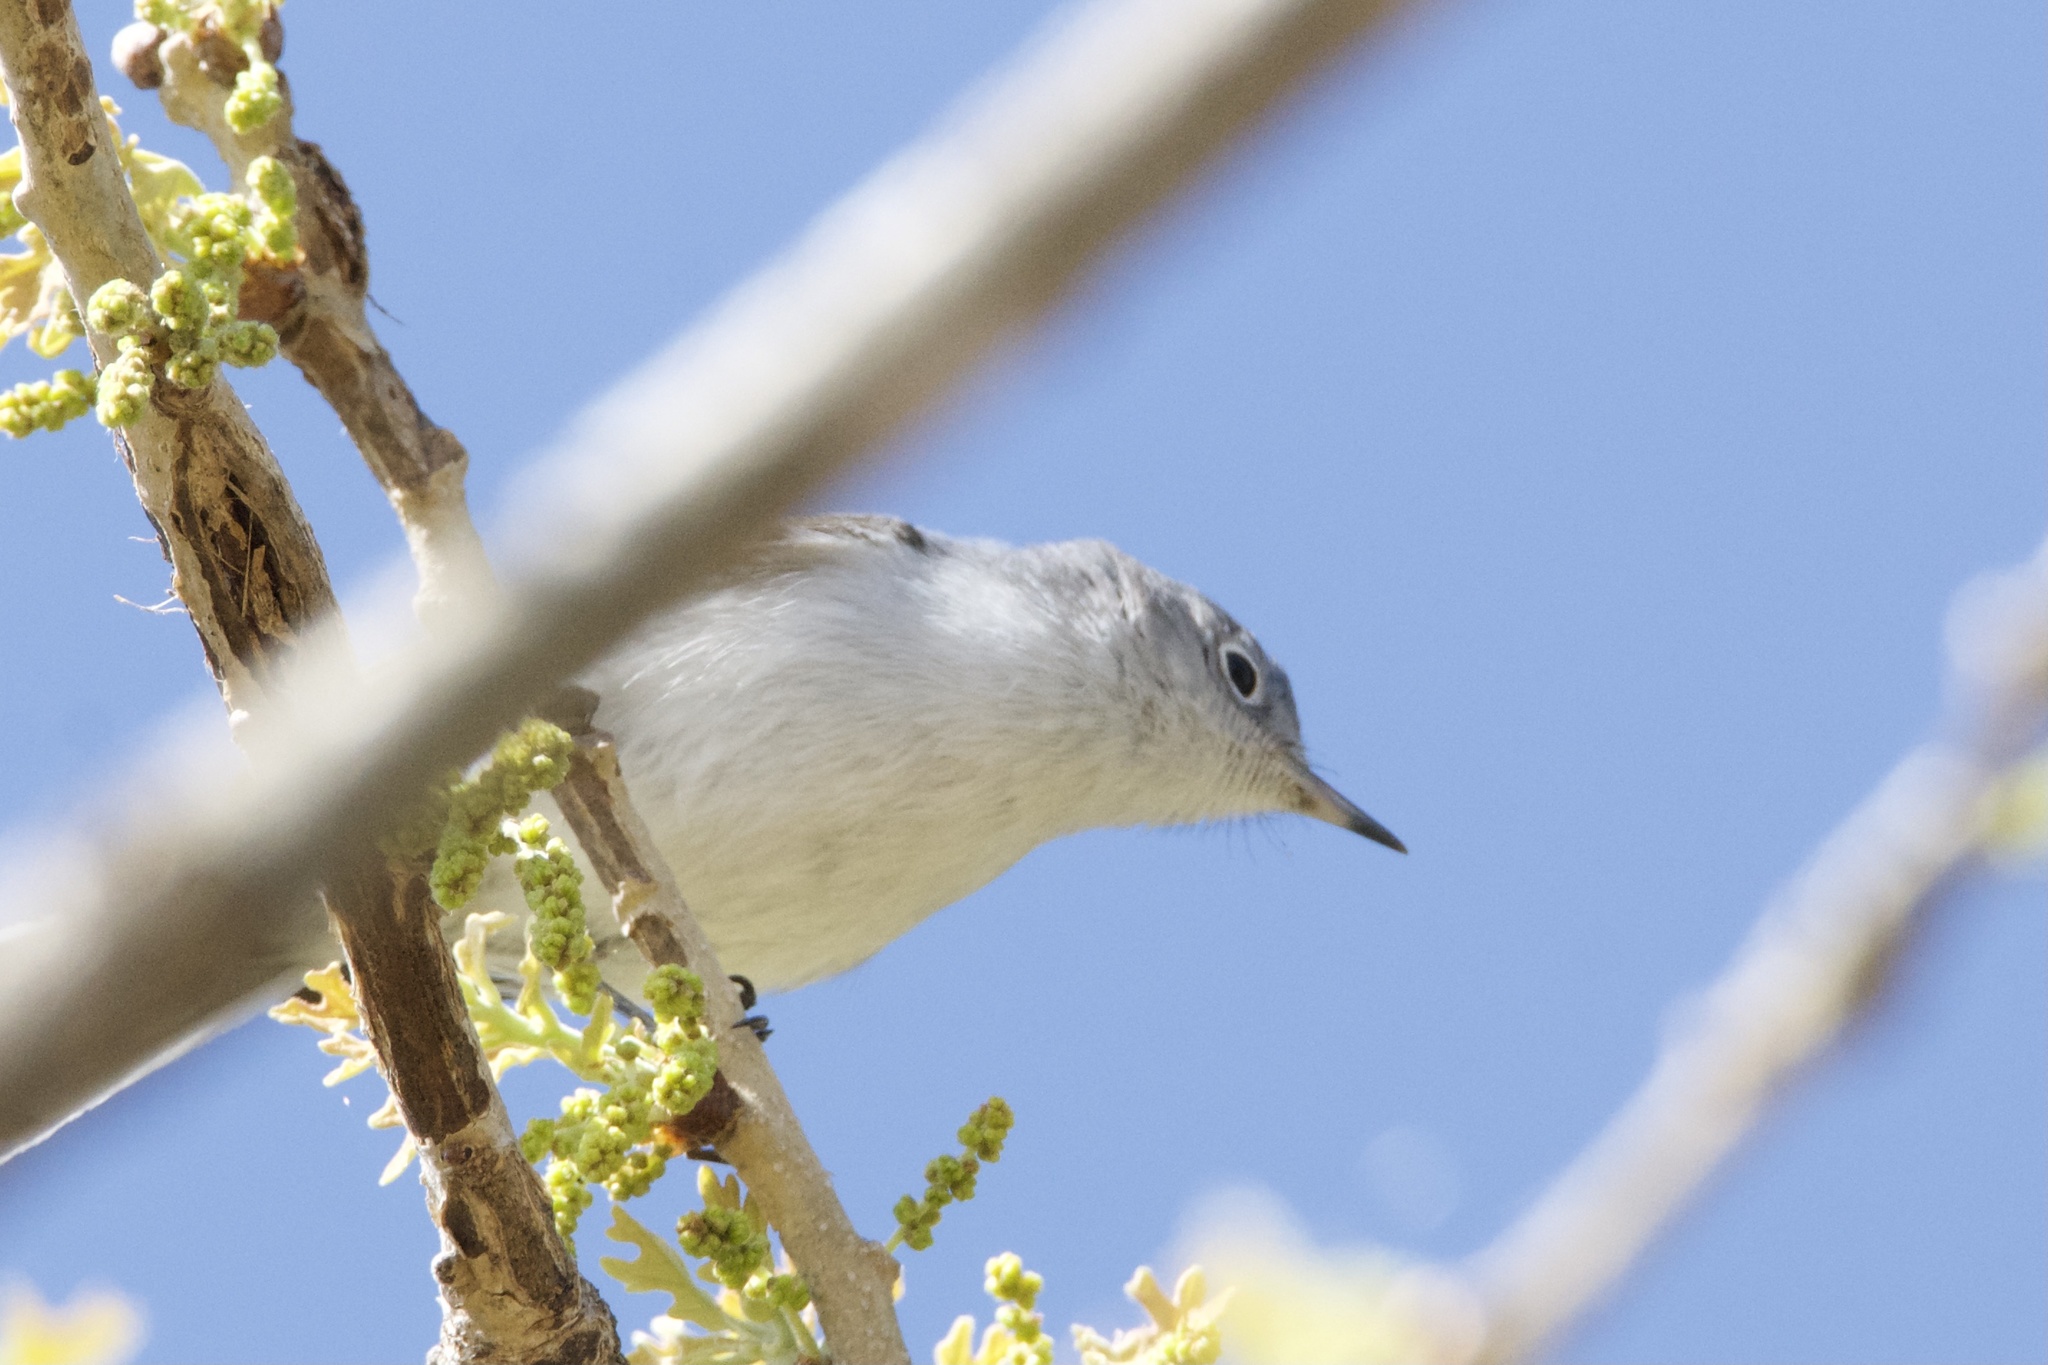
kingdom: Animalia
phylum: Chordata
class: Aves
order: Passeriformes
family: Polioptilidae
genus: Polioptila
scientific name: Polioptila caerulea
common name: Blue-gray gnatcatcher
